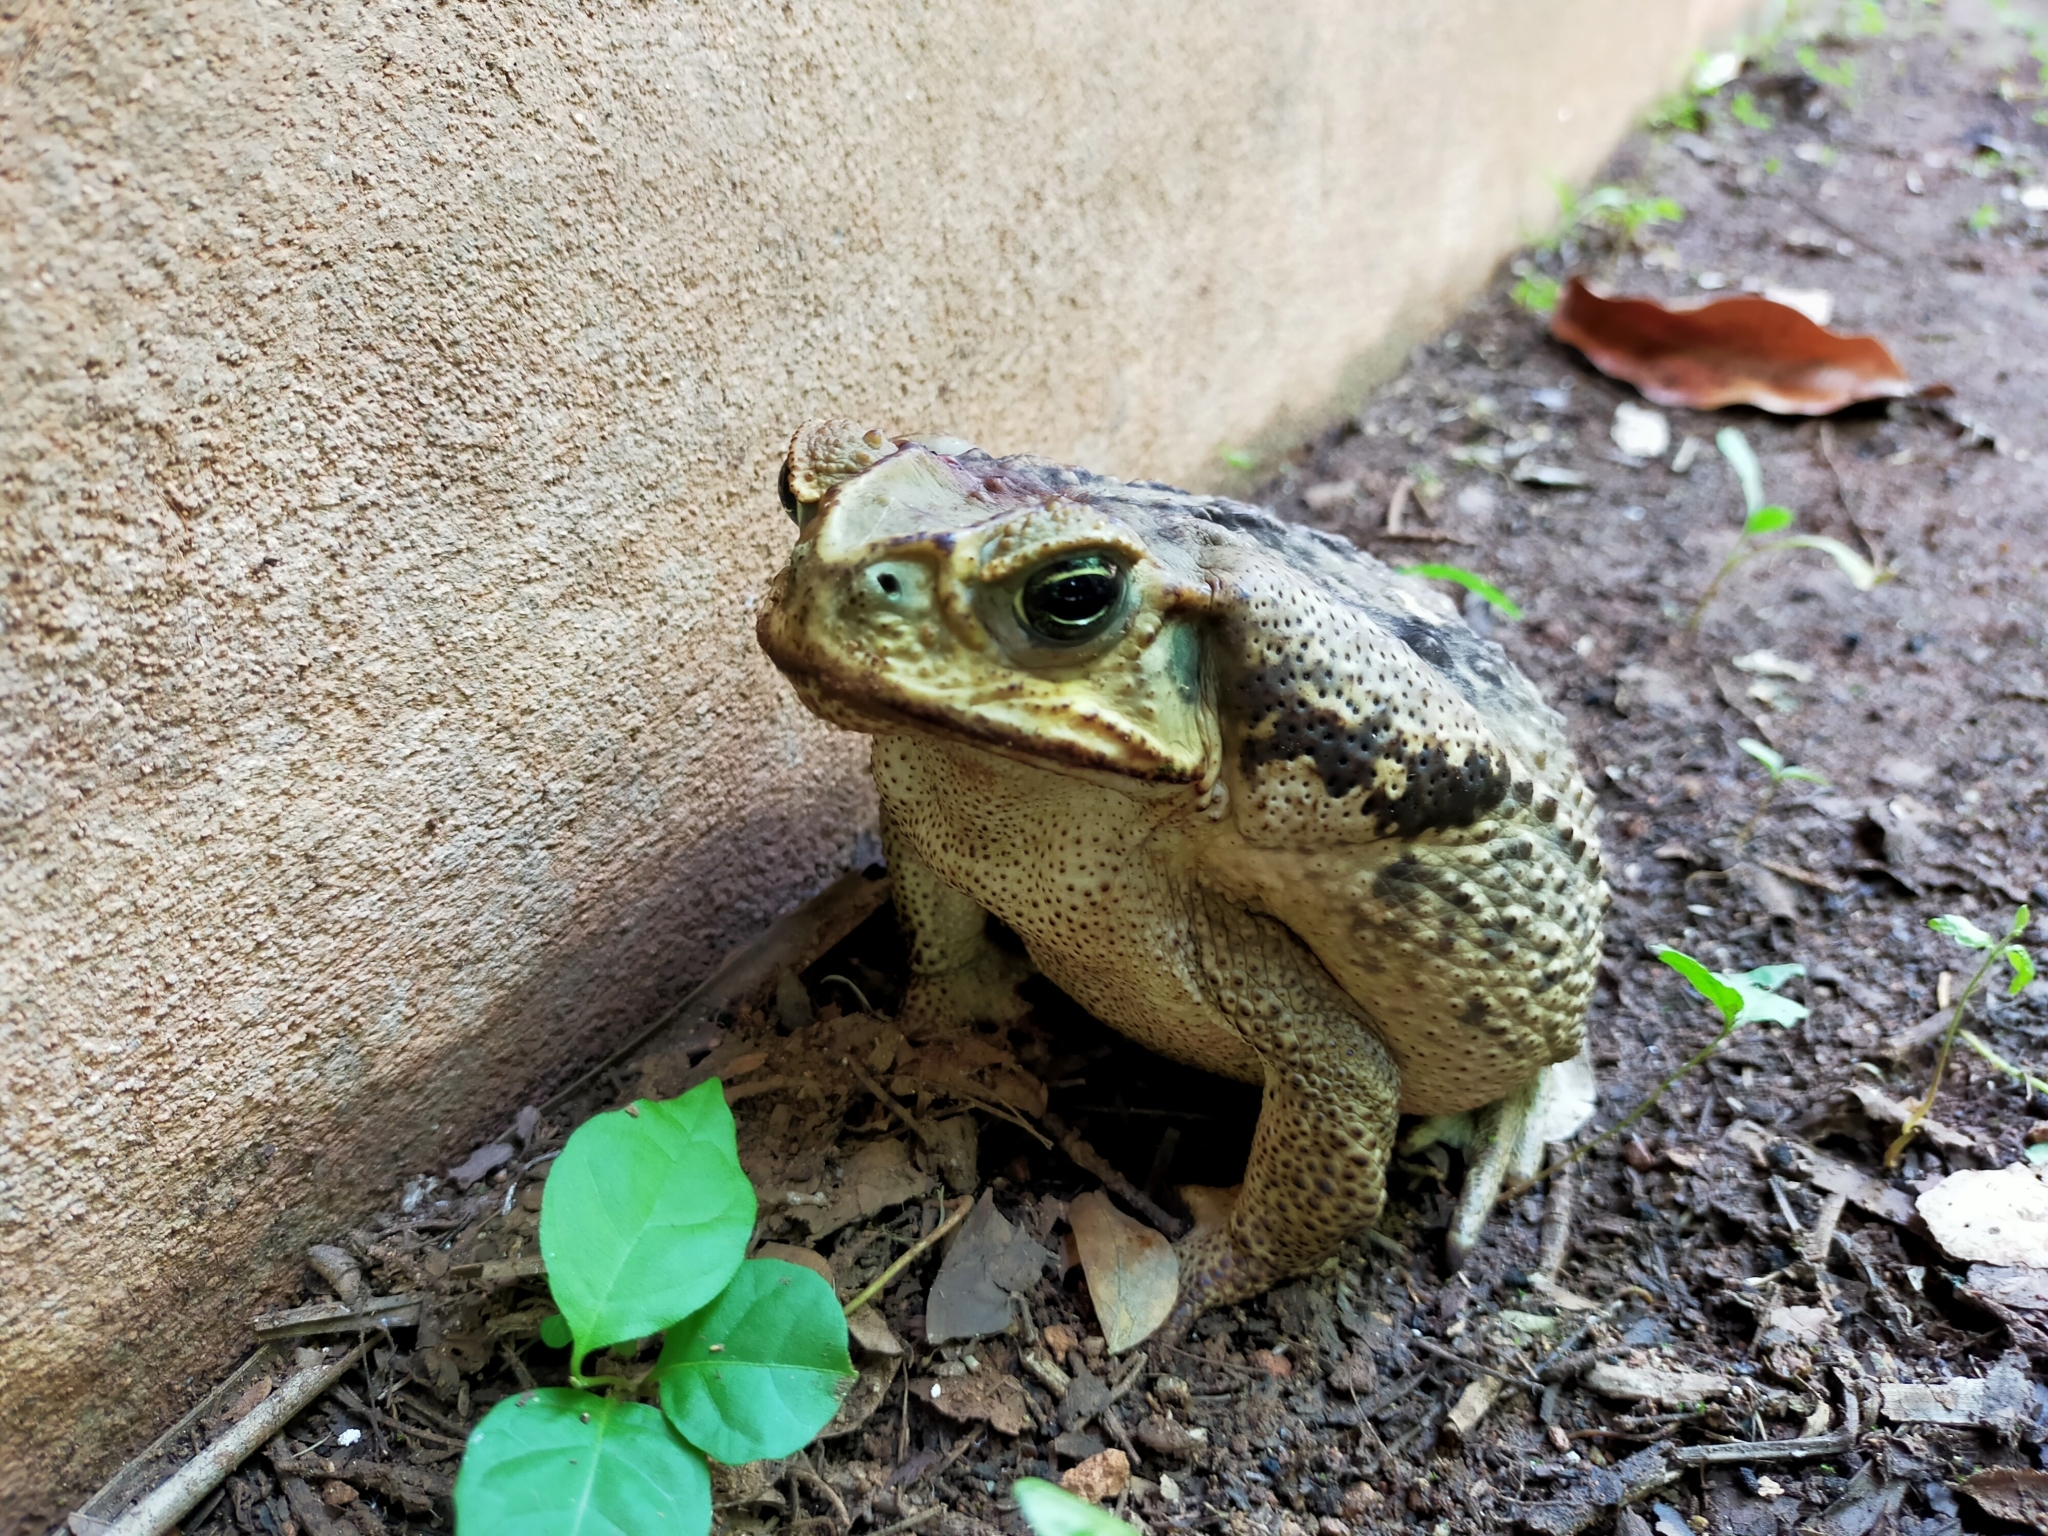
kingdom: Animalia
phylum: Chordata
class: Amphibia
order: Anura
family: Bufonidae
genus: Rhinella
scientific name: Rhinella horribilis
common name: Mesoamerican cane toad
